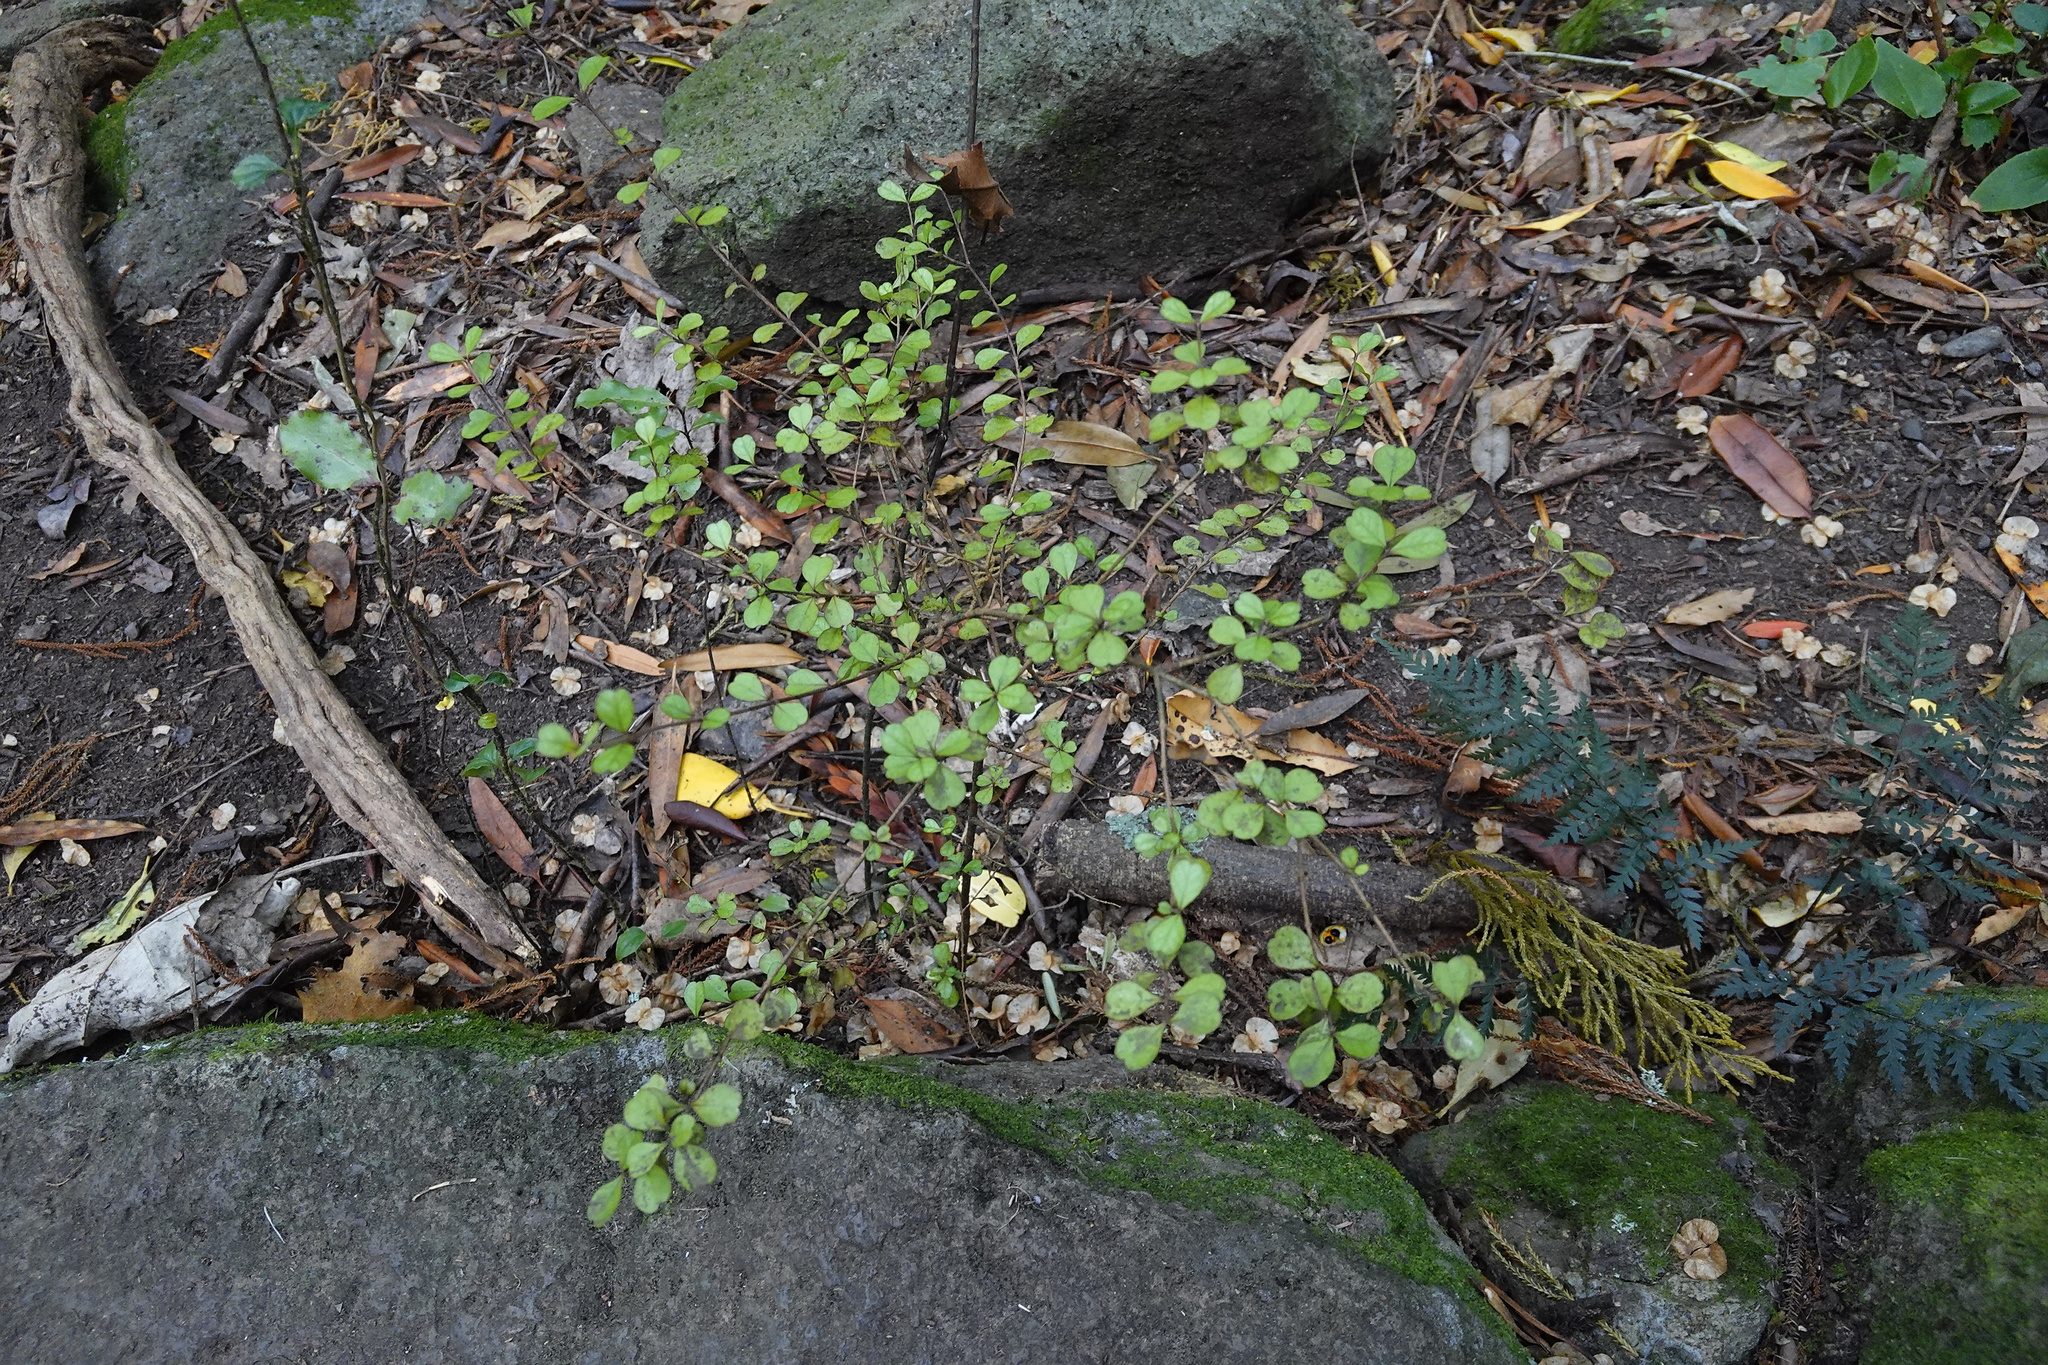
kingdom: Plantae
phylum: Tracheophyta
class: Magnoliopsida
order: Myrtales
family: Myrtaceae
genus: Lophomyrtus
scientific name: Lophomyrtus obcordata
